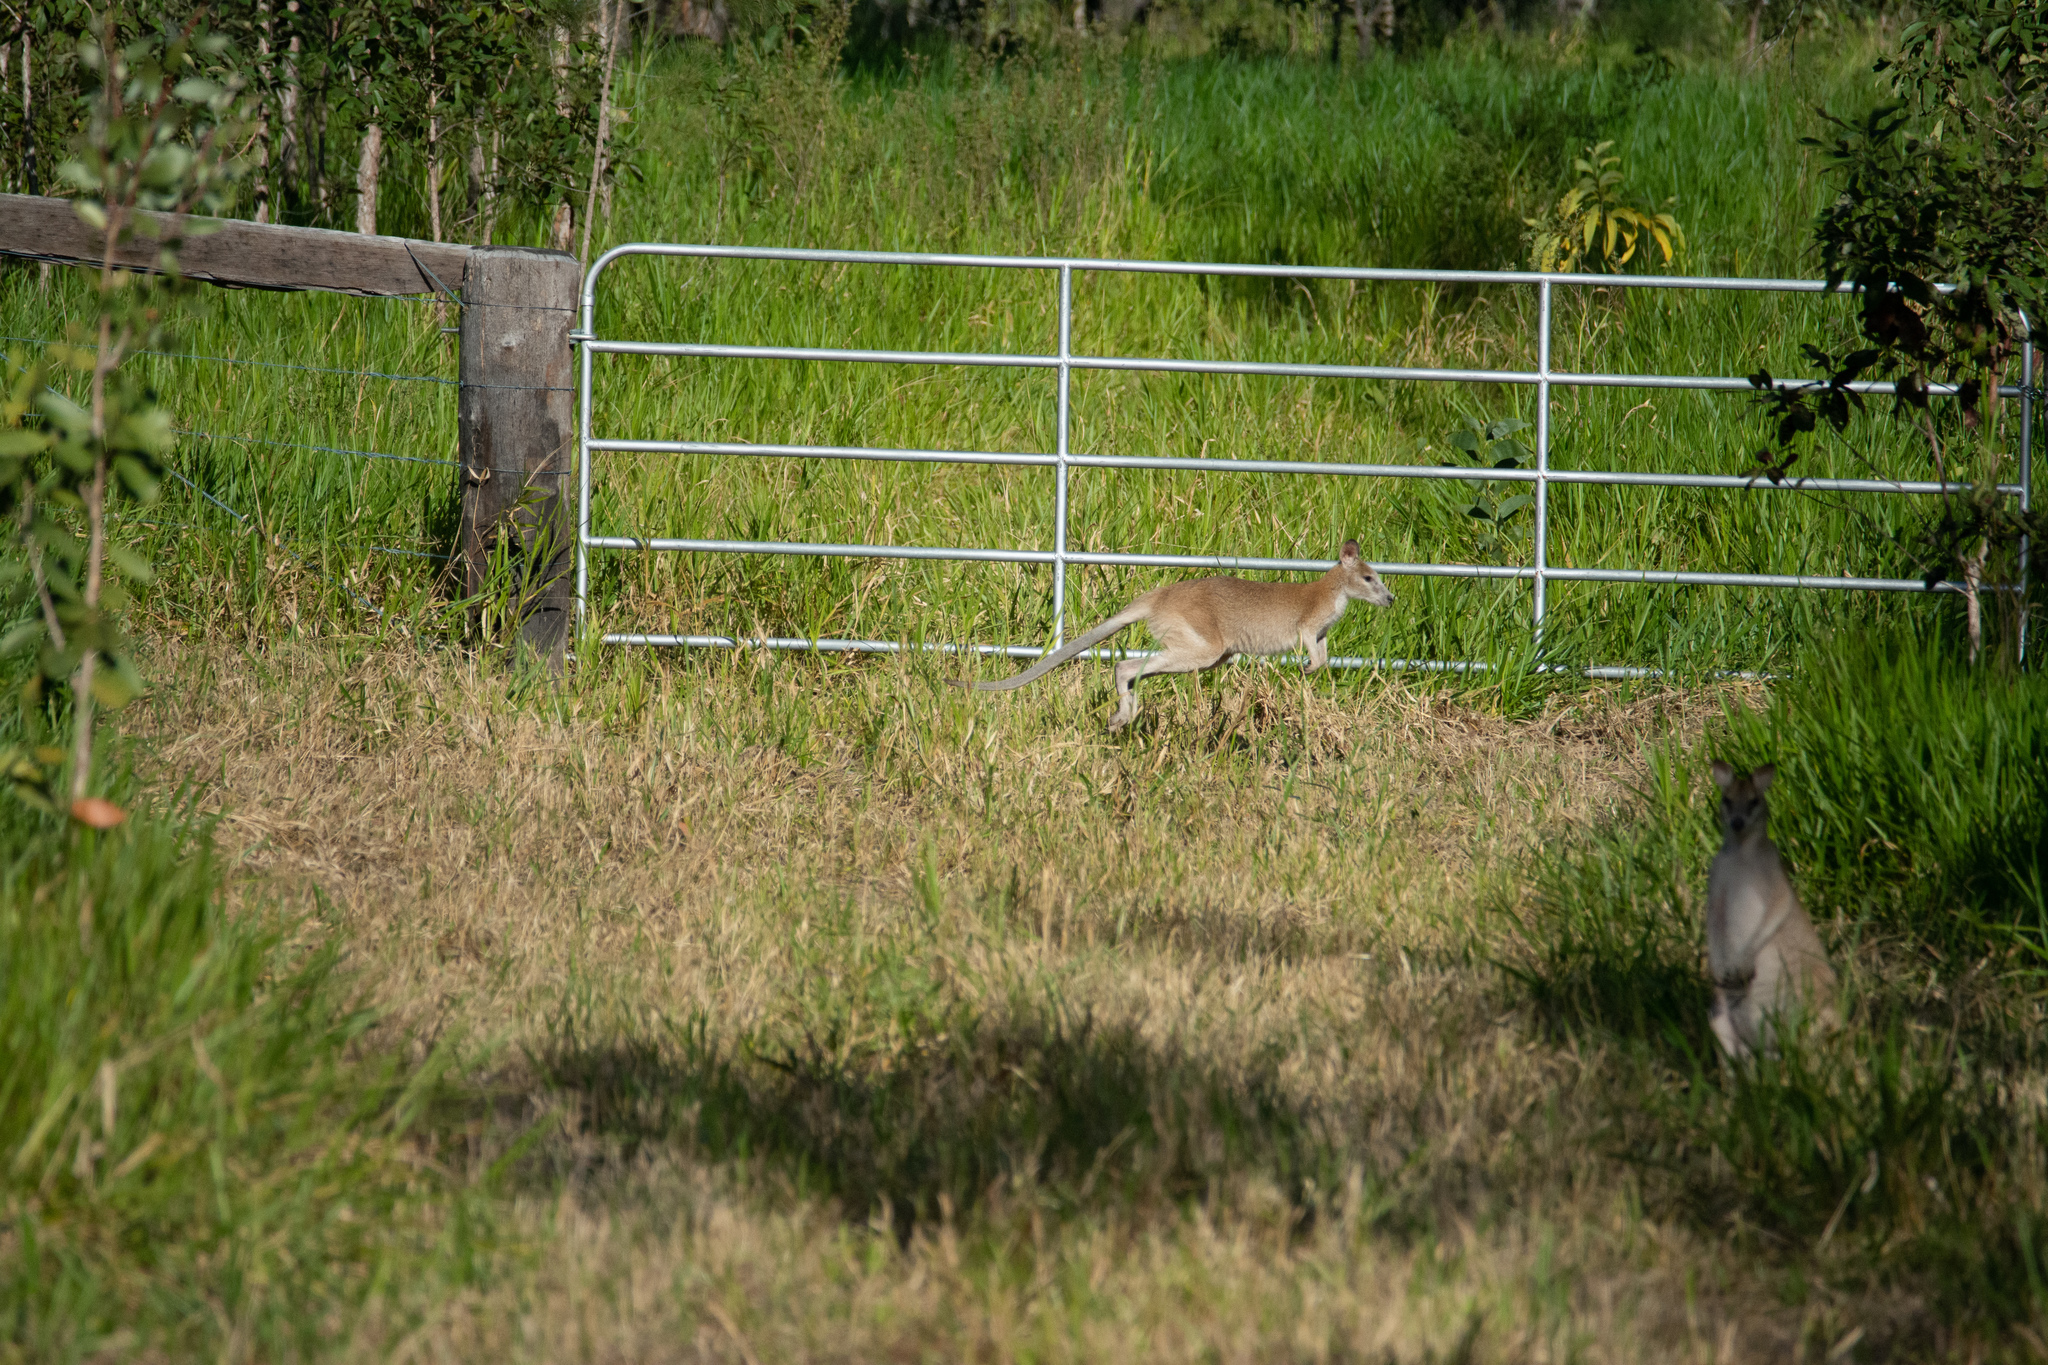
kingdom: Animalia
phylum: Chordata
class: Mammalia
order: Diprotodontia
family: Macropodidae
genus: Macropus
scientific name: Macropus agilis
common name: Agile wallaby
